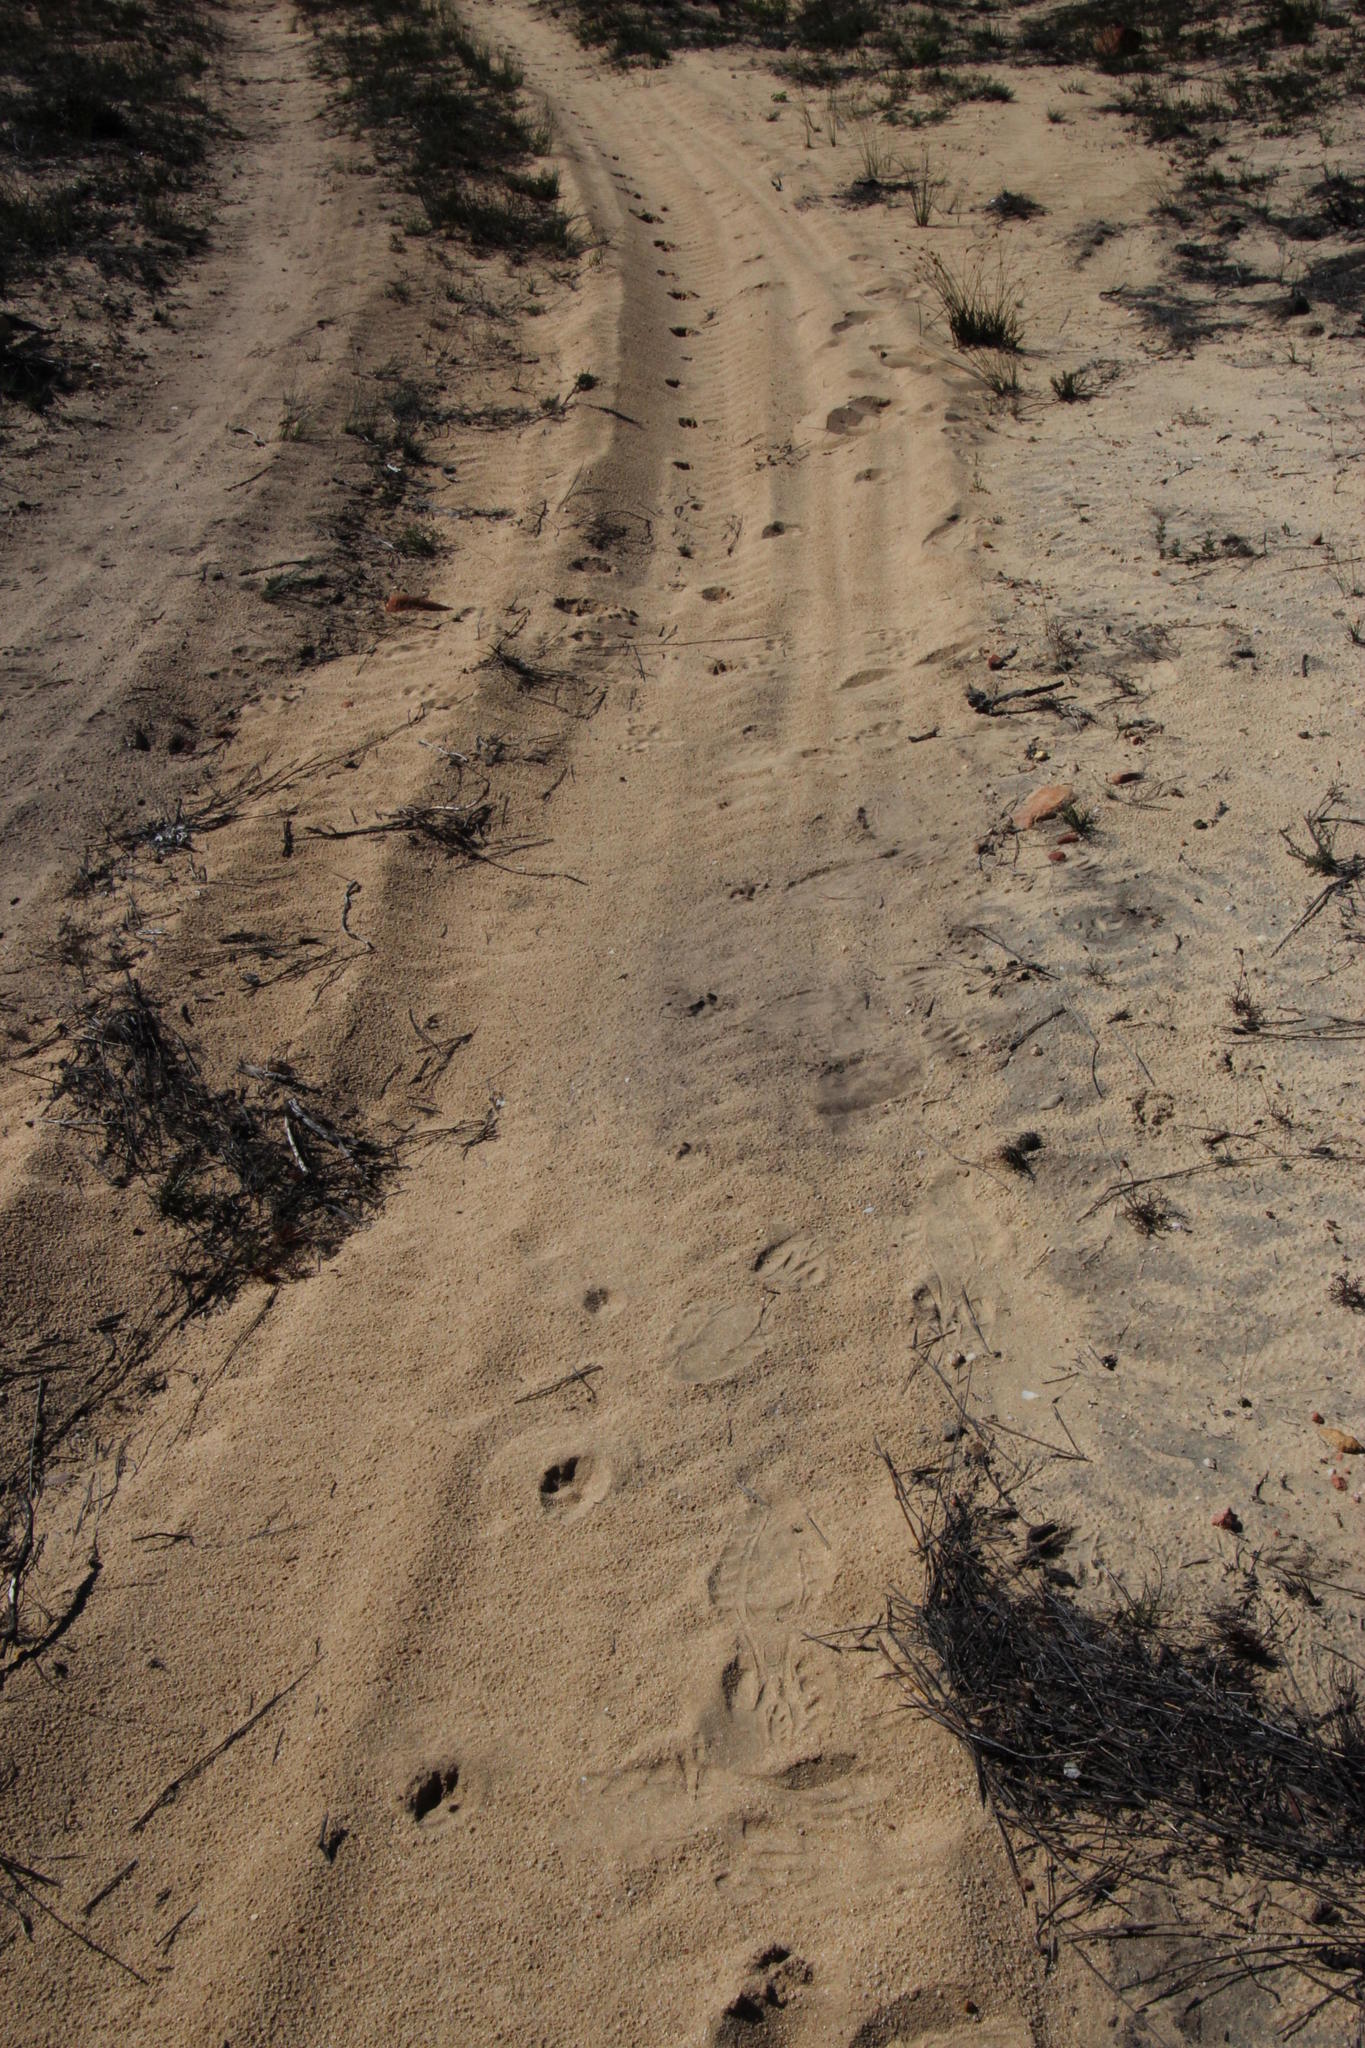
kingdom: Animalia
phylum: Chordata
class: Mammalia
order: Primates
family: Cercopithecidae
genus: Papio
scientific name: Papio ursinus
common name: Chacma baboon
